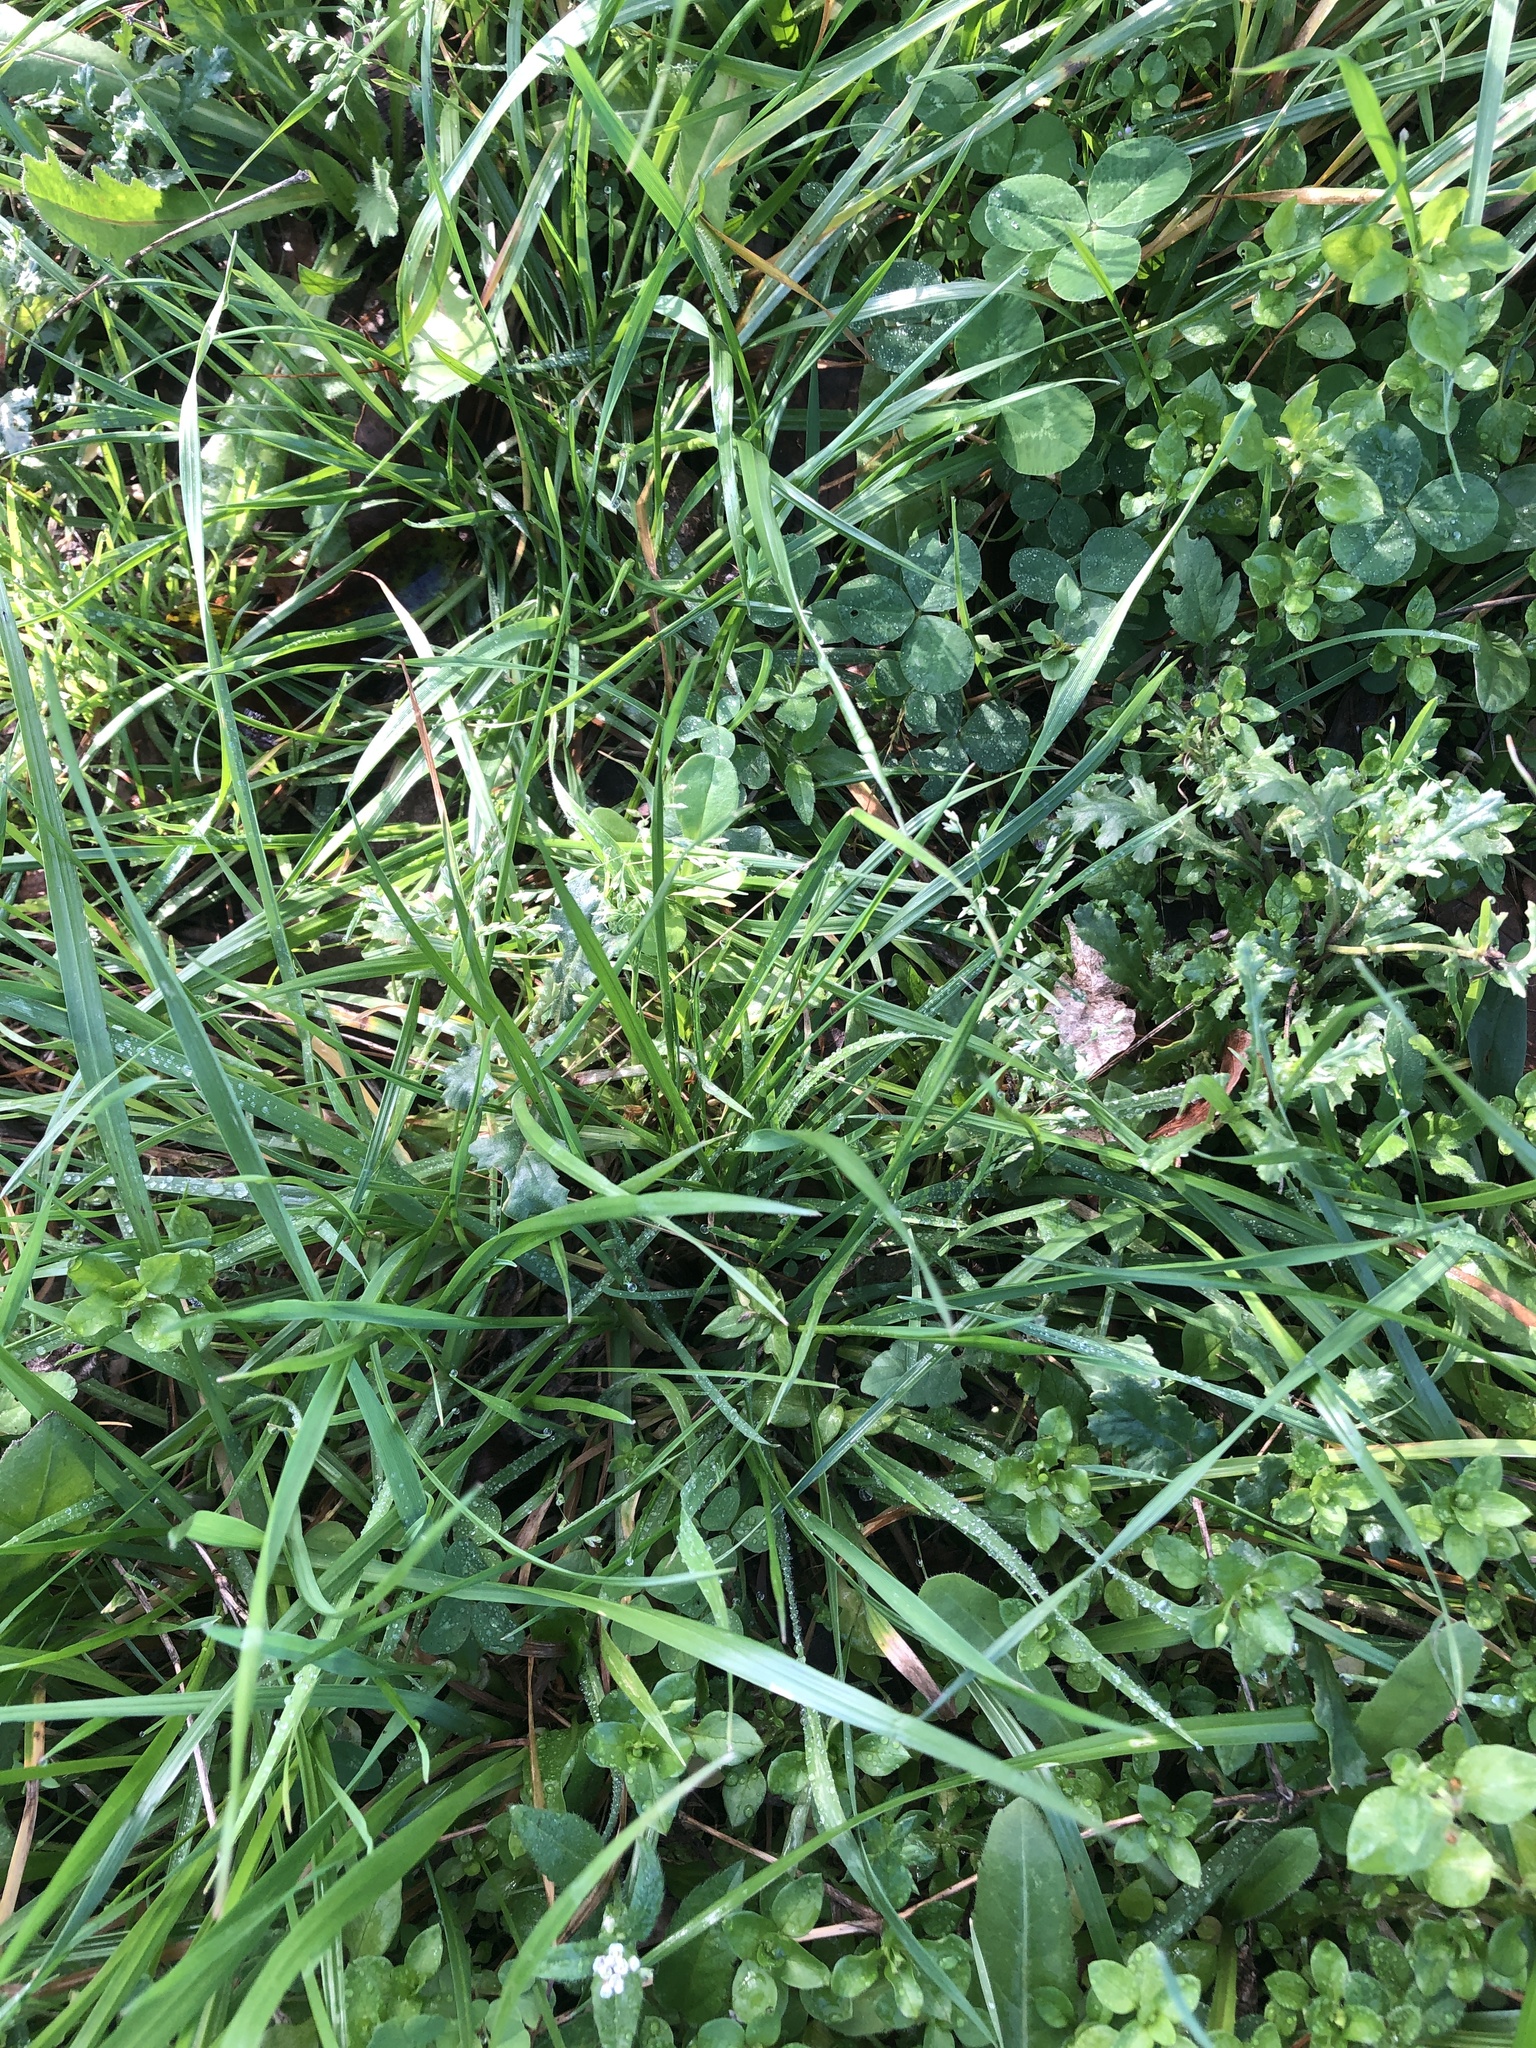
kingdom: Plantae
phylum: Tracheophyta
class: Liliopsida
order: Poales
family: Poaceae
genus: Poa
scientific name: Poa annua
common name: Annual bluegrass
